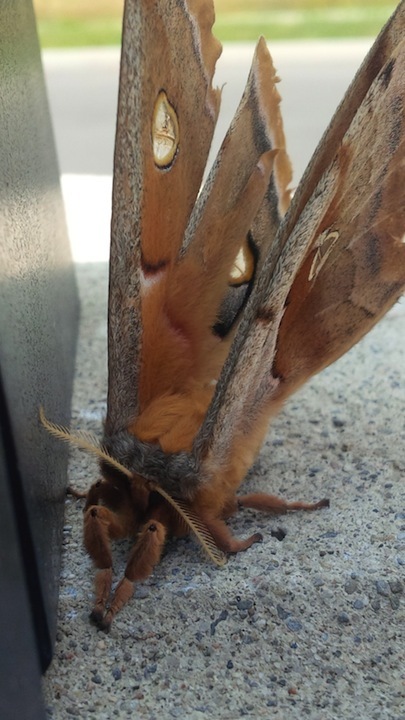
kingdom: Animalia
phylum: Arthropoda
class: Insecta
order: Lepidoptera
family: Saturniidae
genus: Antheraea
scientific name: Antheraea polyphemus
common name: Polyphemus moth
